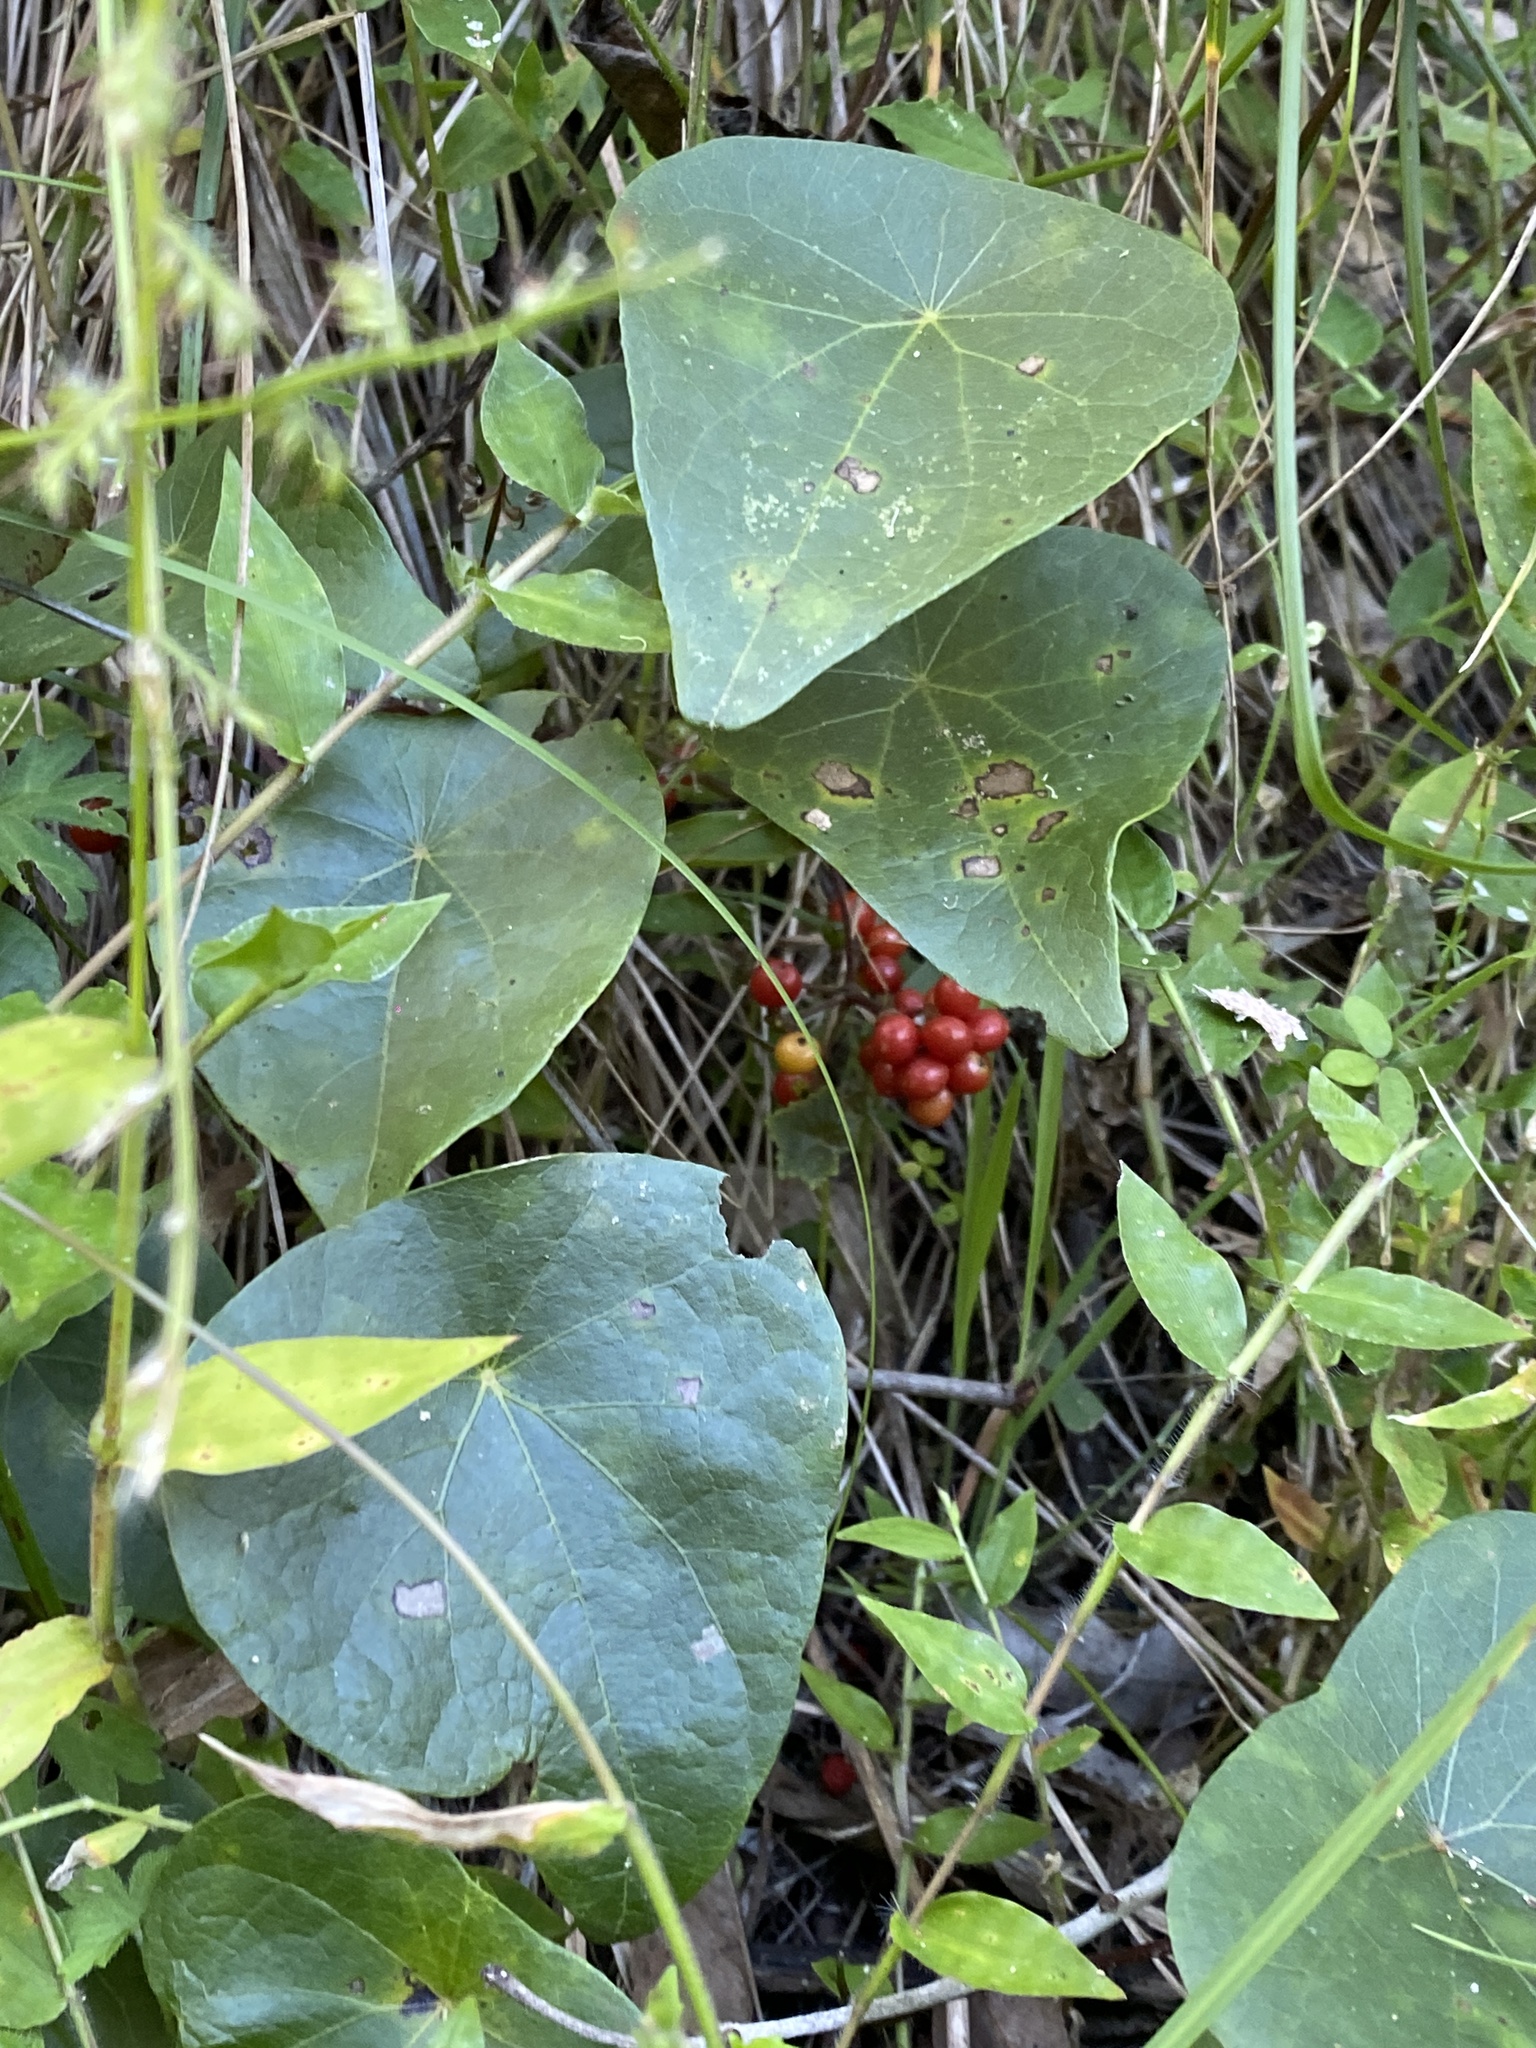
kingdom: Plantae
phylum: Tracheophyta
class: Magnoliopsida
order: Ranunculales
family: Menispermaceae
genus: Stephania
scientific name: Stephania japonica
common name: Snake vine
